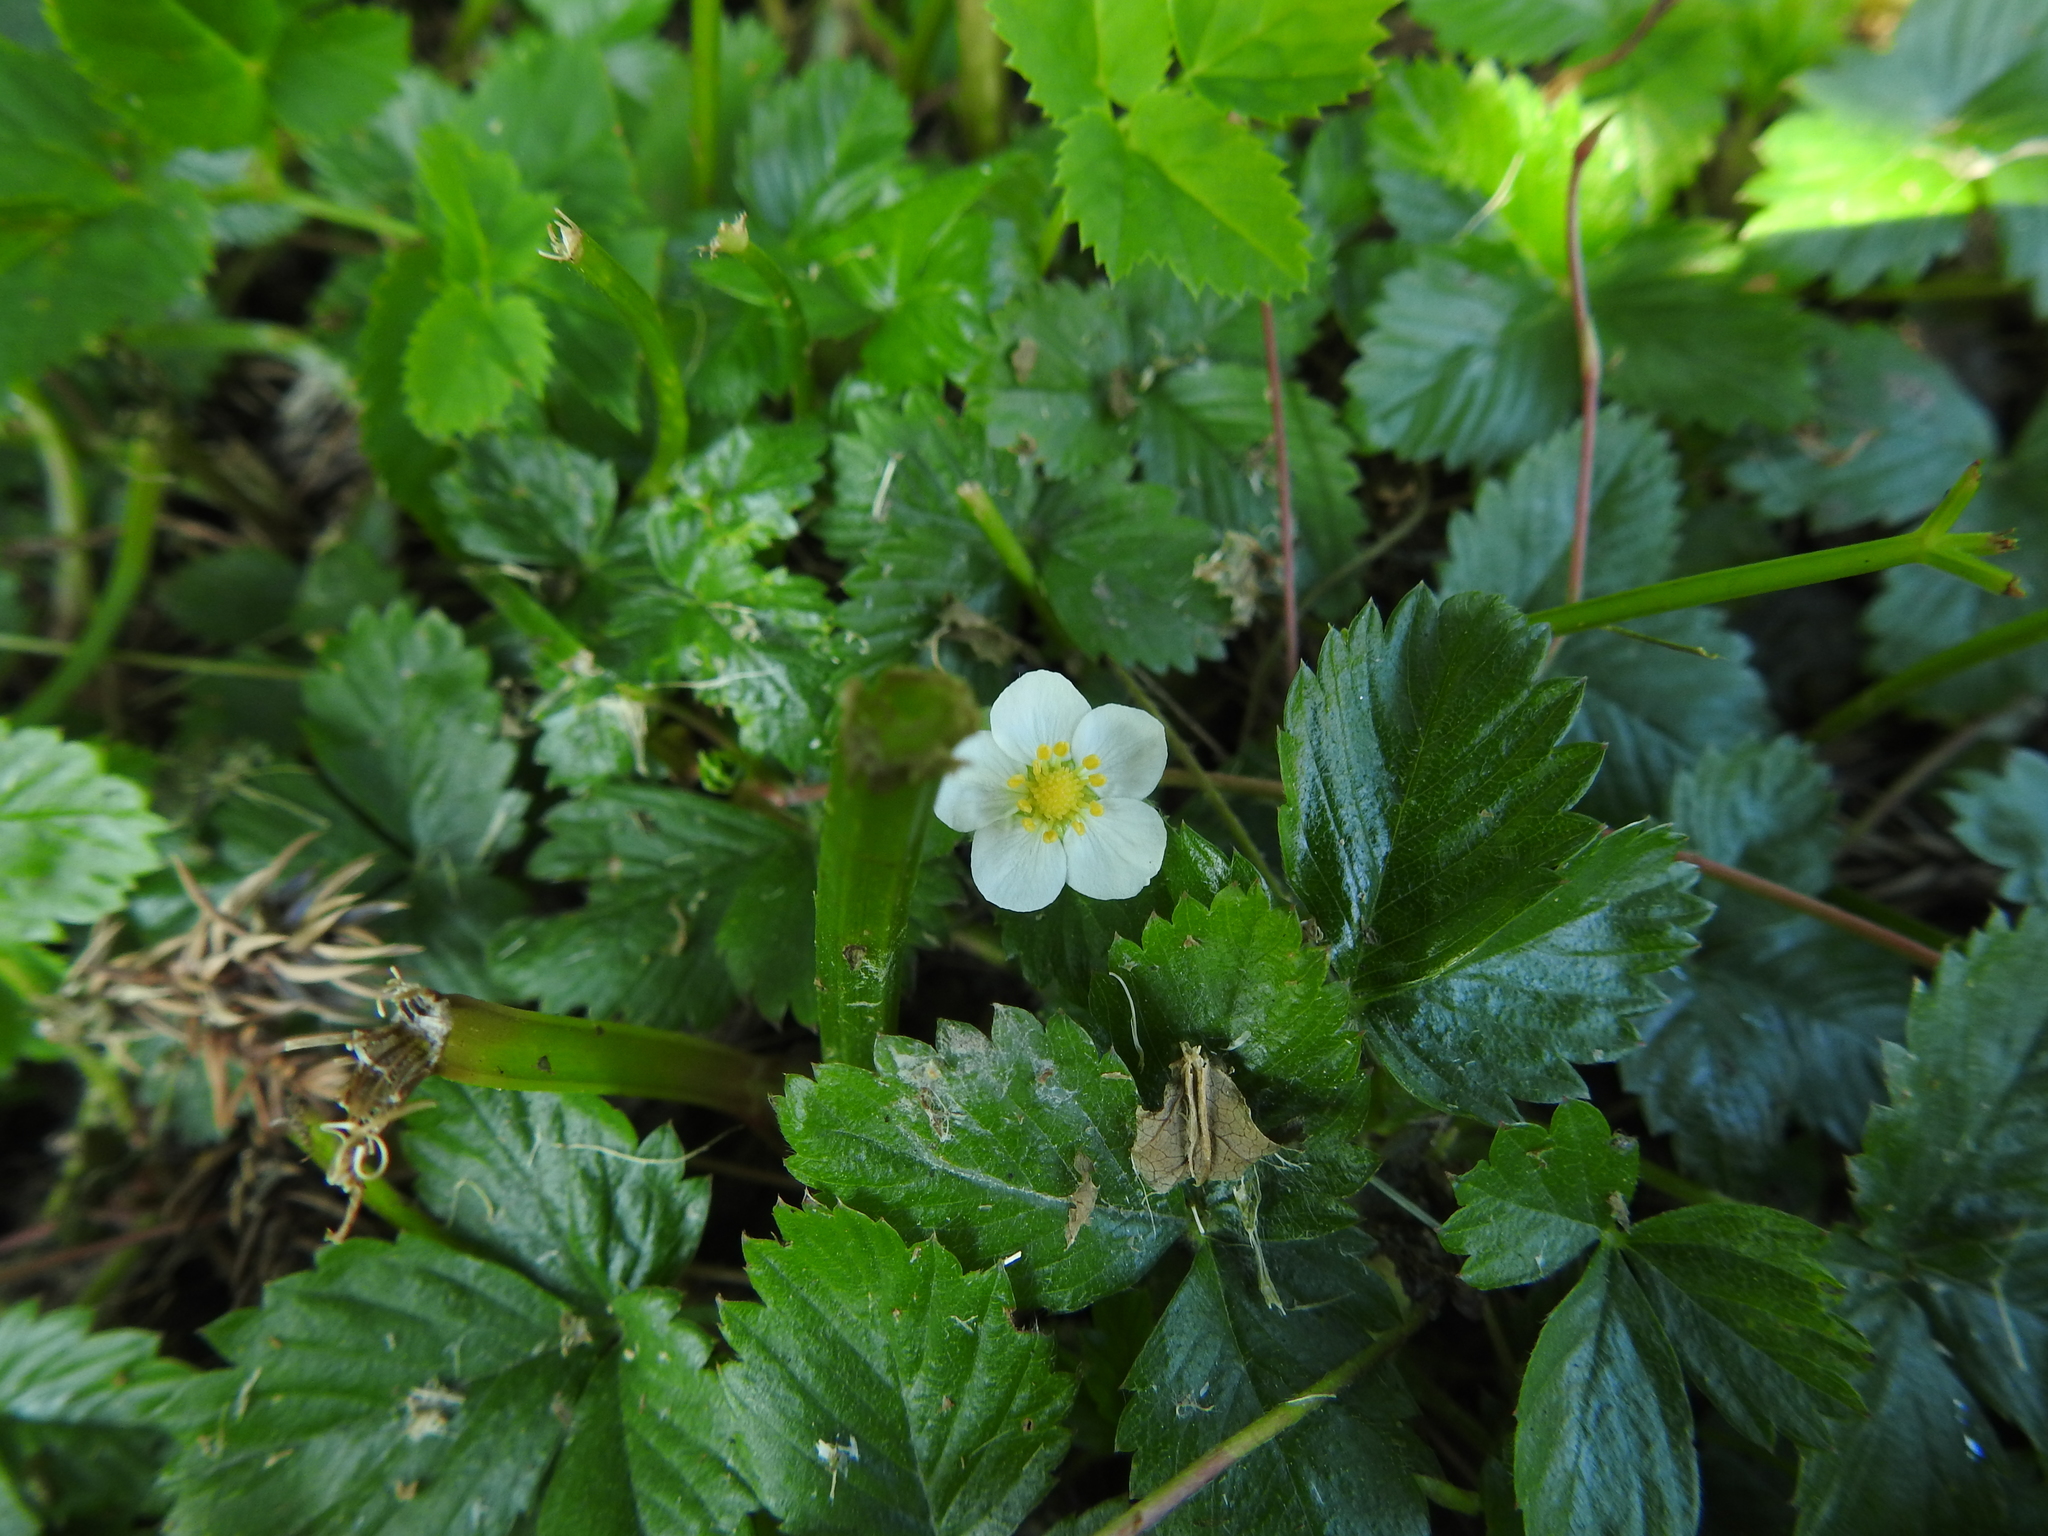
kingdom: Plantae
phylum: Tracheophyta
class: Magnoliopsida
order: Rosales
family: Rosaceae
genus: Fragaria
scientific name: Fragaria vesca
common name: Wild strawberry
